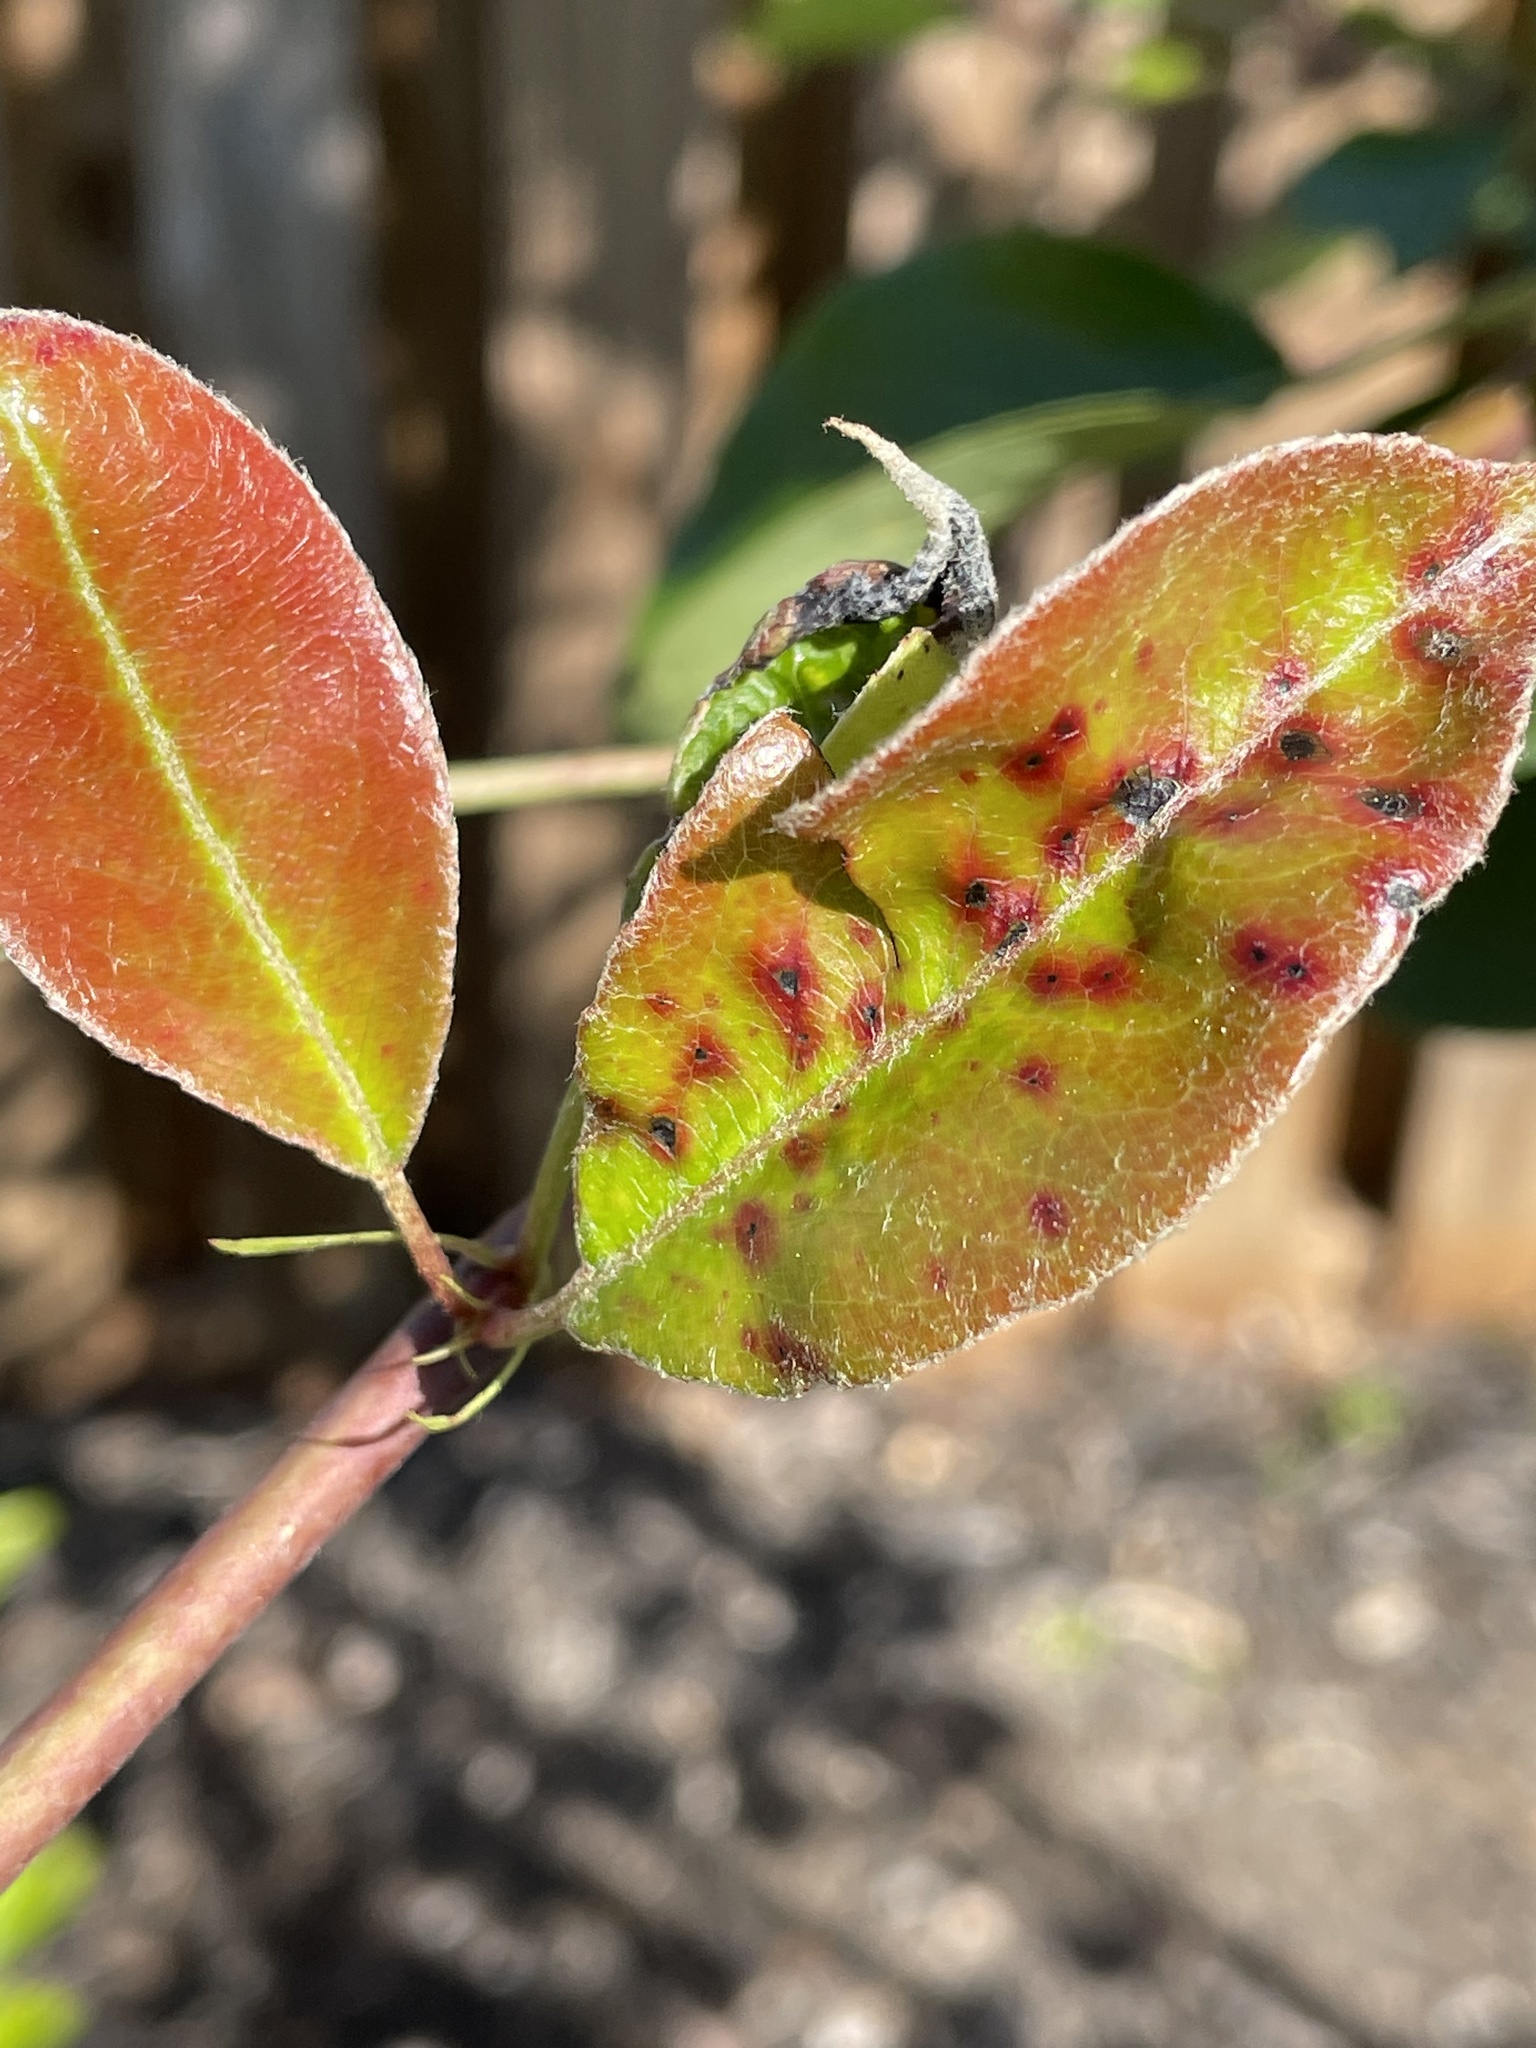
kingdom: Fungi
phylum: Basidiomycota
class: Pucciniomycetes
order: Pucciniales
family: Gymnosporangiaceae
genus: Gymnosporangium
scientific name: Gymnosporangium sabinae
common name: Pear trellis rust fungus
